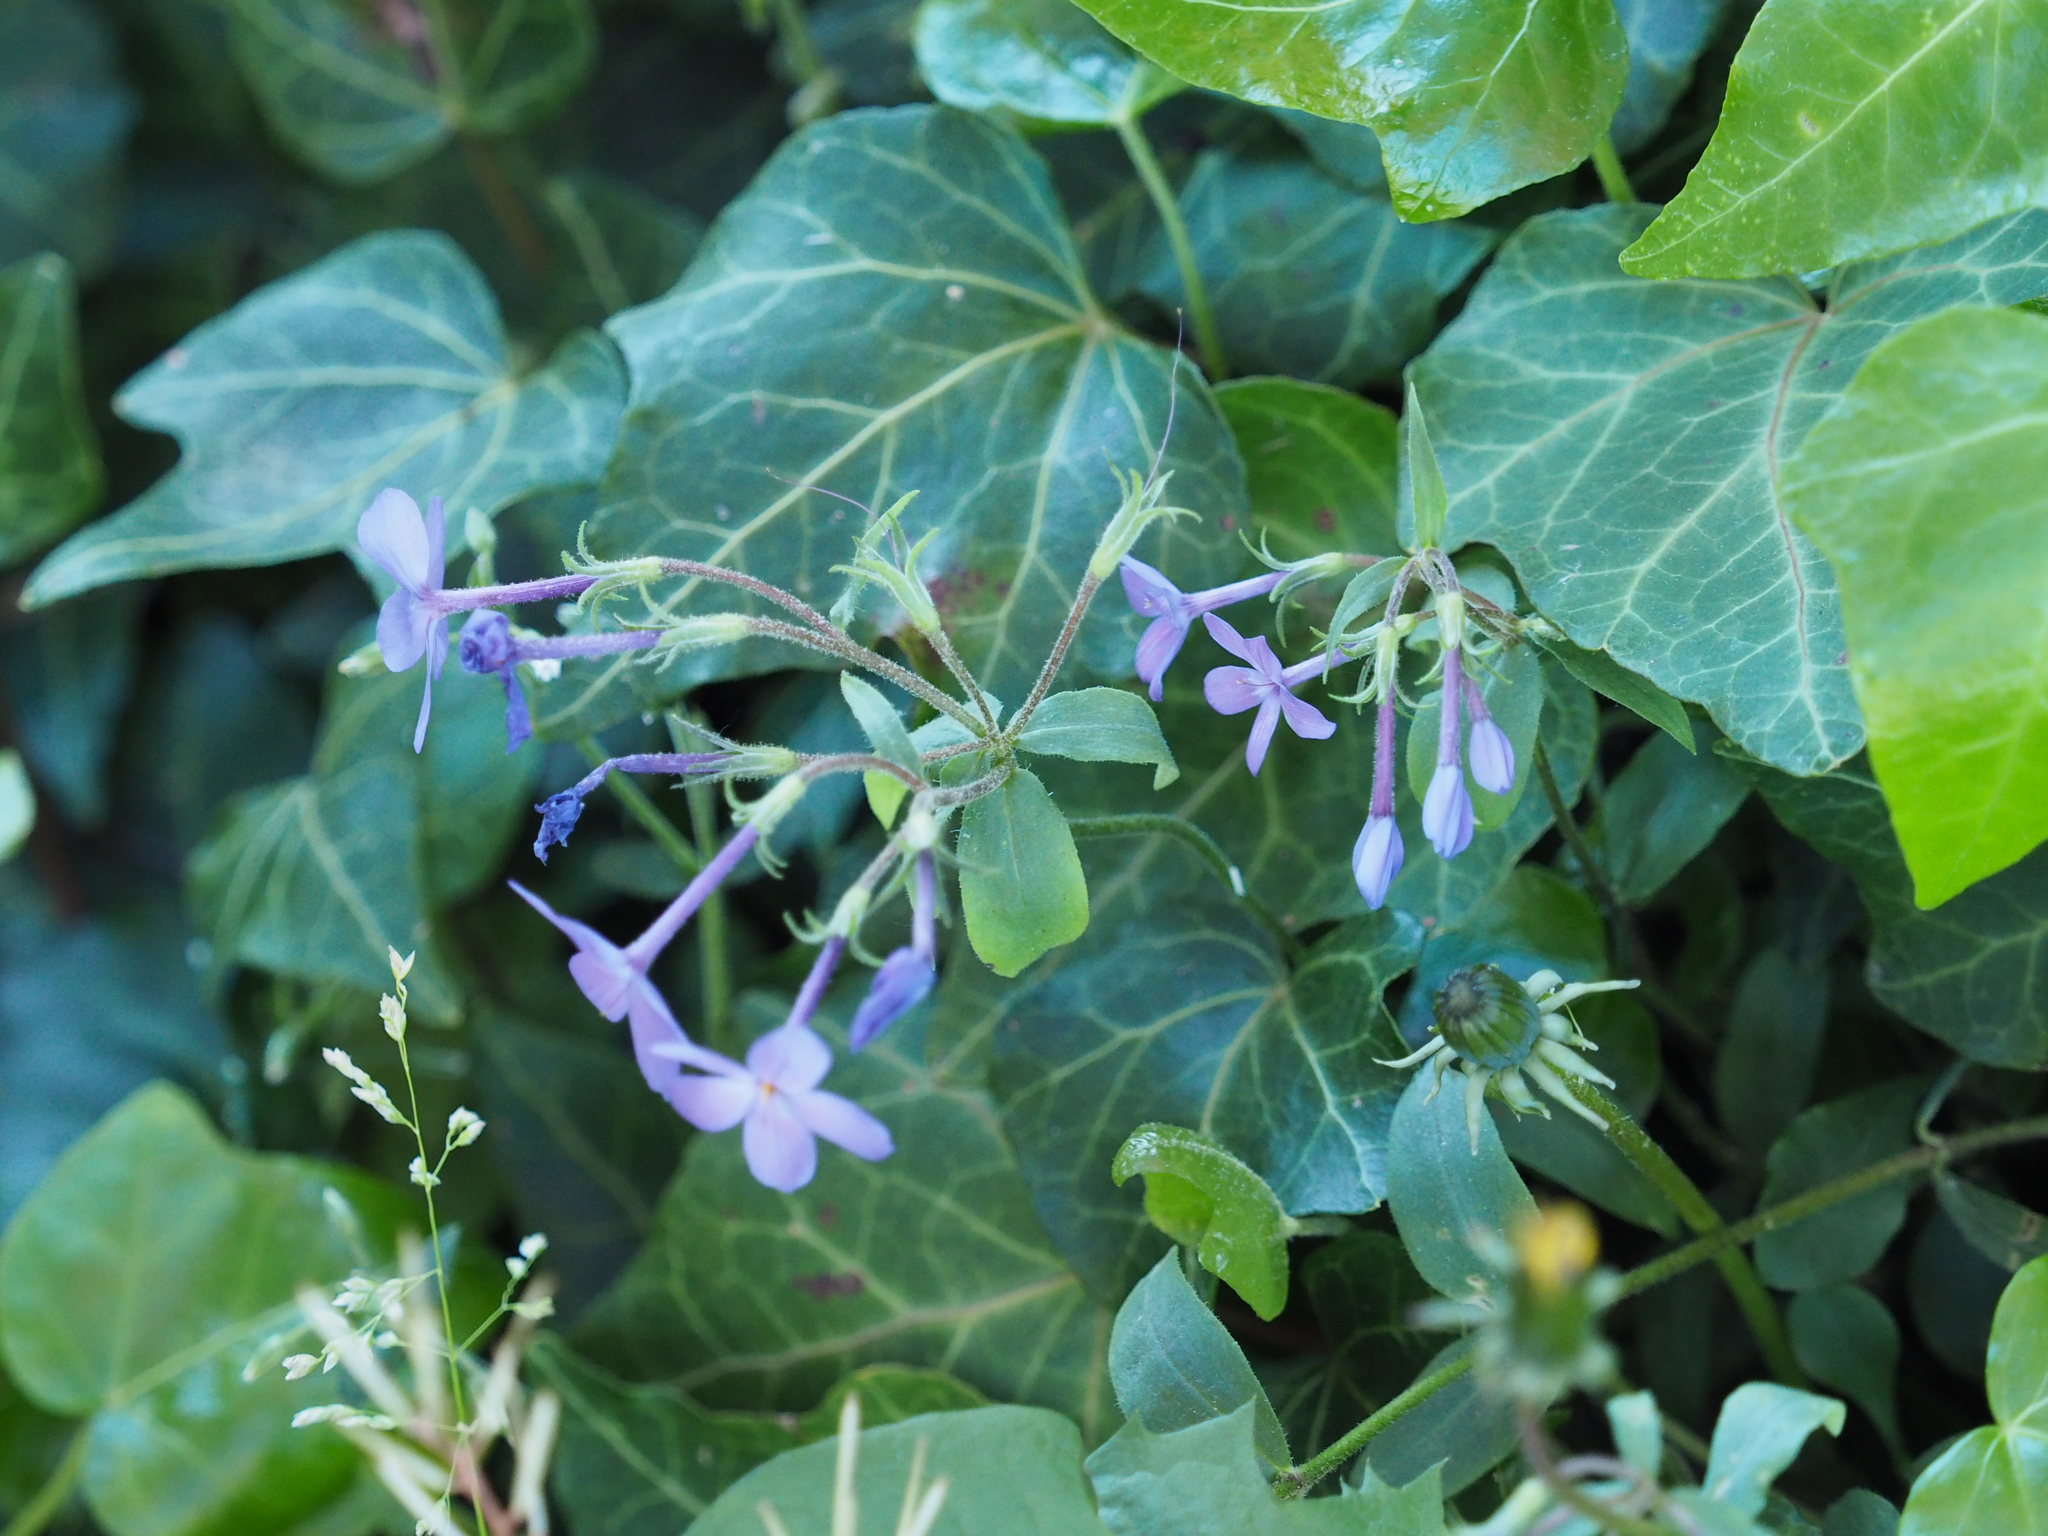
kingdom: Plantae
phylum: Tracheophyta
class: Magnoliopsida
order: Ericales
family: Polemoniaceae
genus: Phlox
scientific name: Phlox divaricata
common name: Blue phlox
